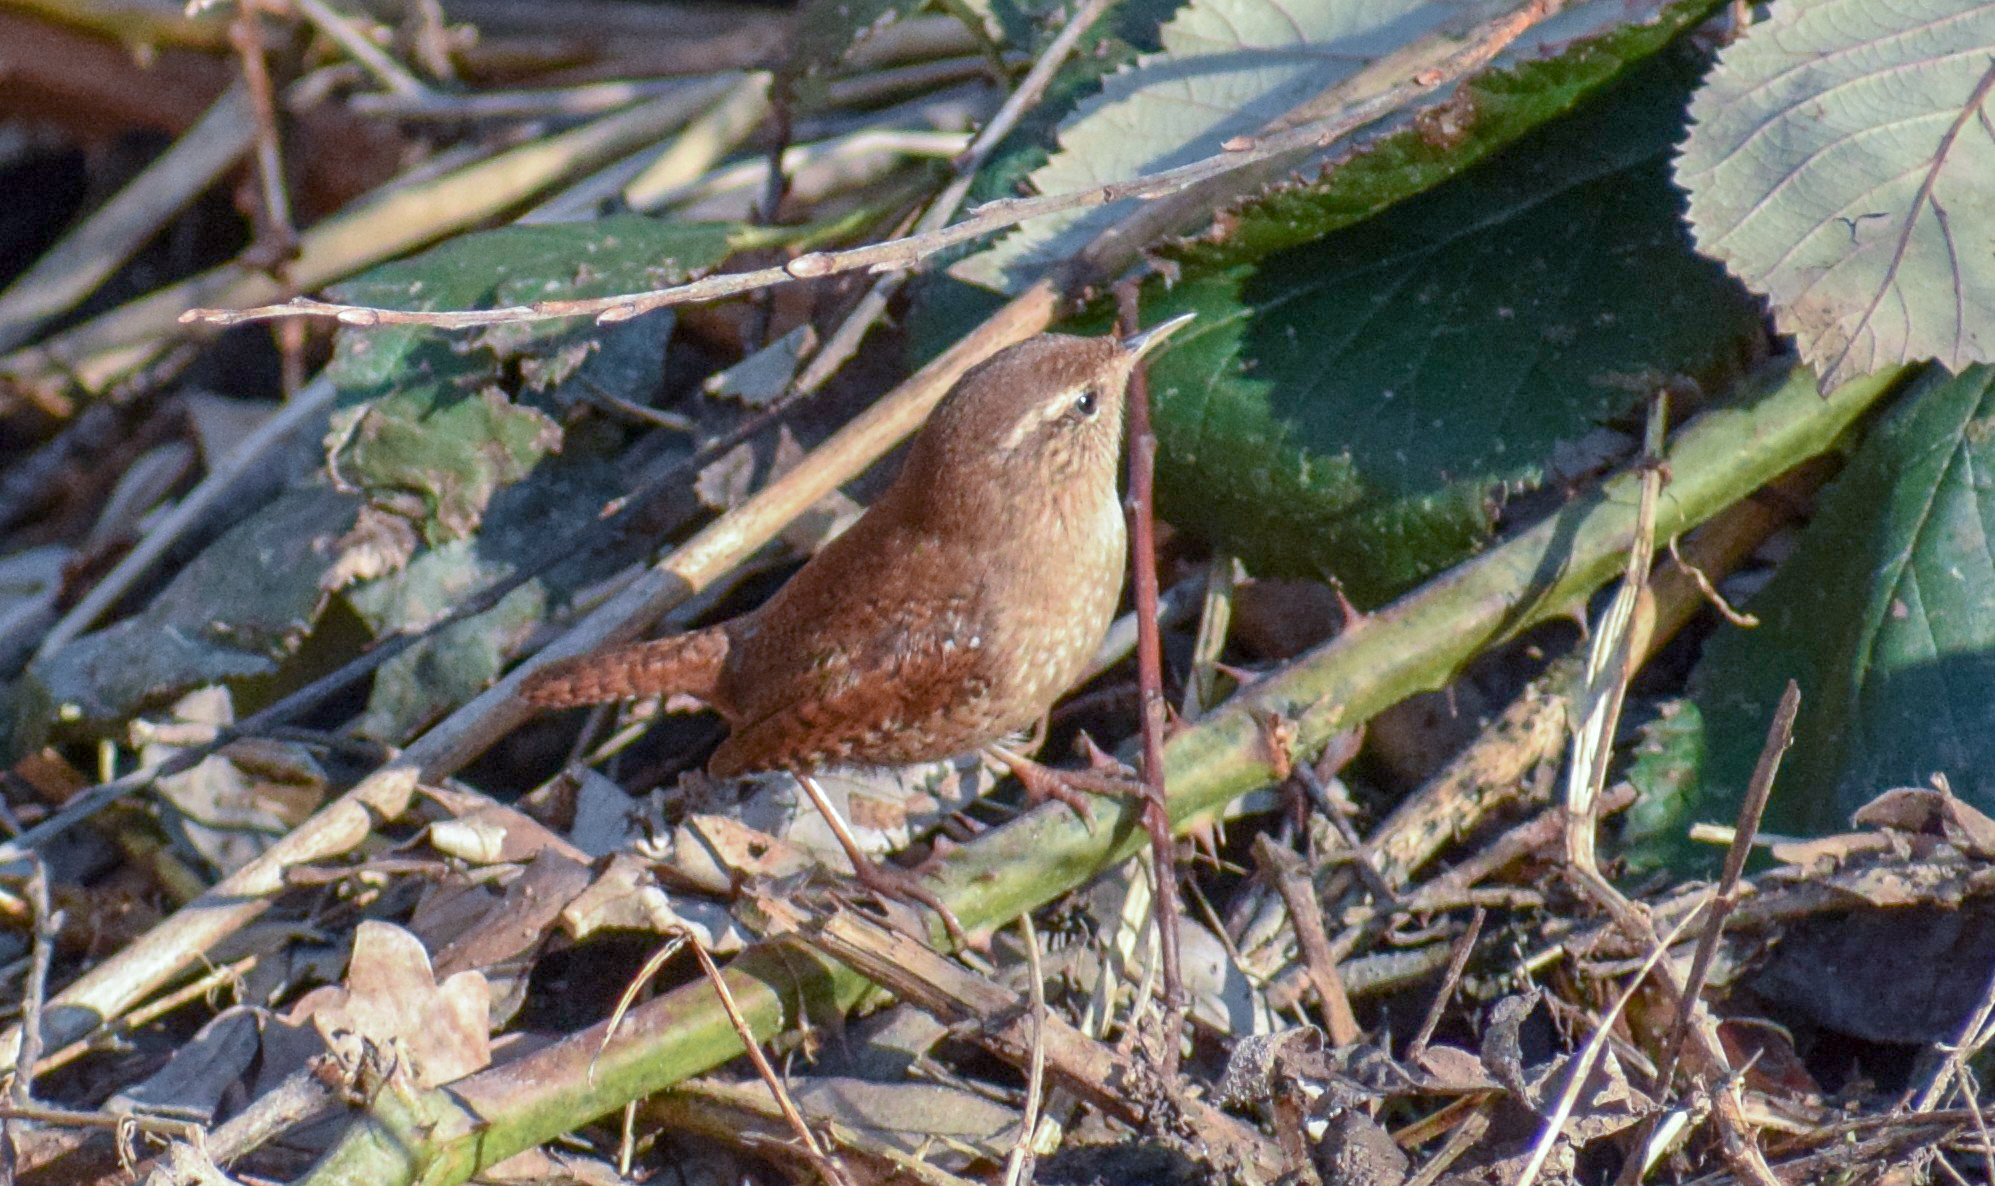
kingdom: Animalia
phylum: Chordata
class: Aves
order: Passeriformes
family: Troglodytidae
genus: Troglodytes
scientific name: Troglodytes troglodytes
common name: Eurasian wren
